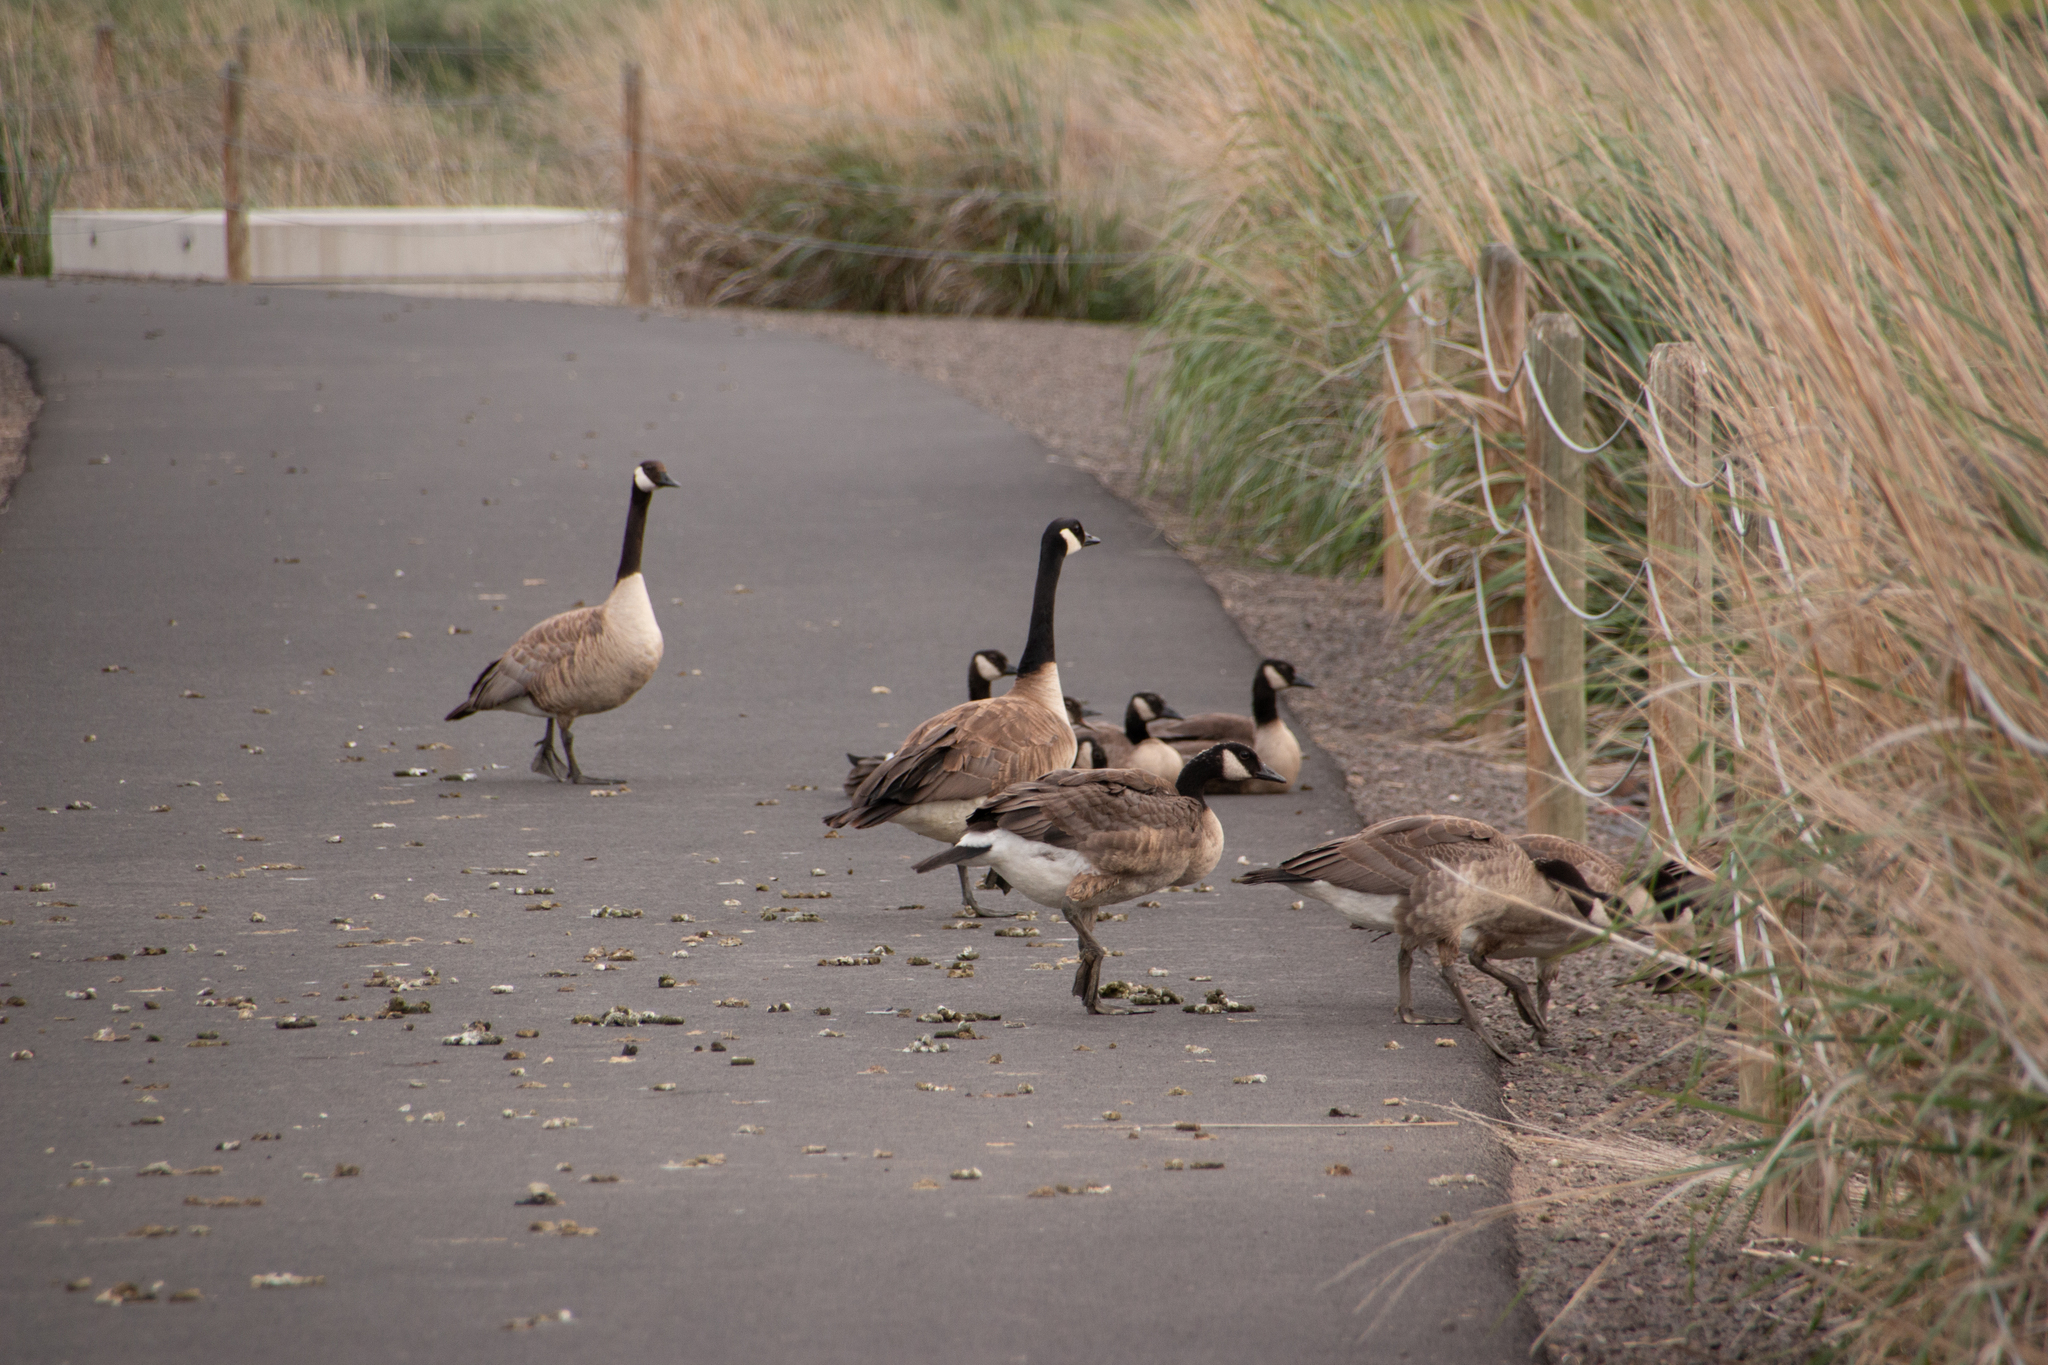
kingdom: Animalia
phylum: Chordata
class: Aves
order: Anseriformes
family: Anatidae
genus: Branta
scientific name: Branta canadensis
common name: Canada goose
